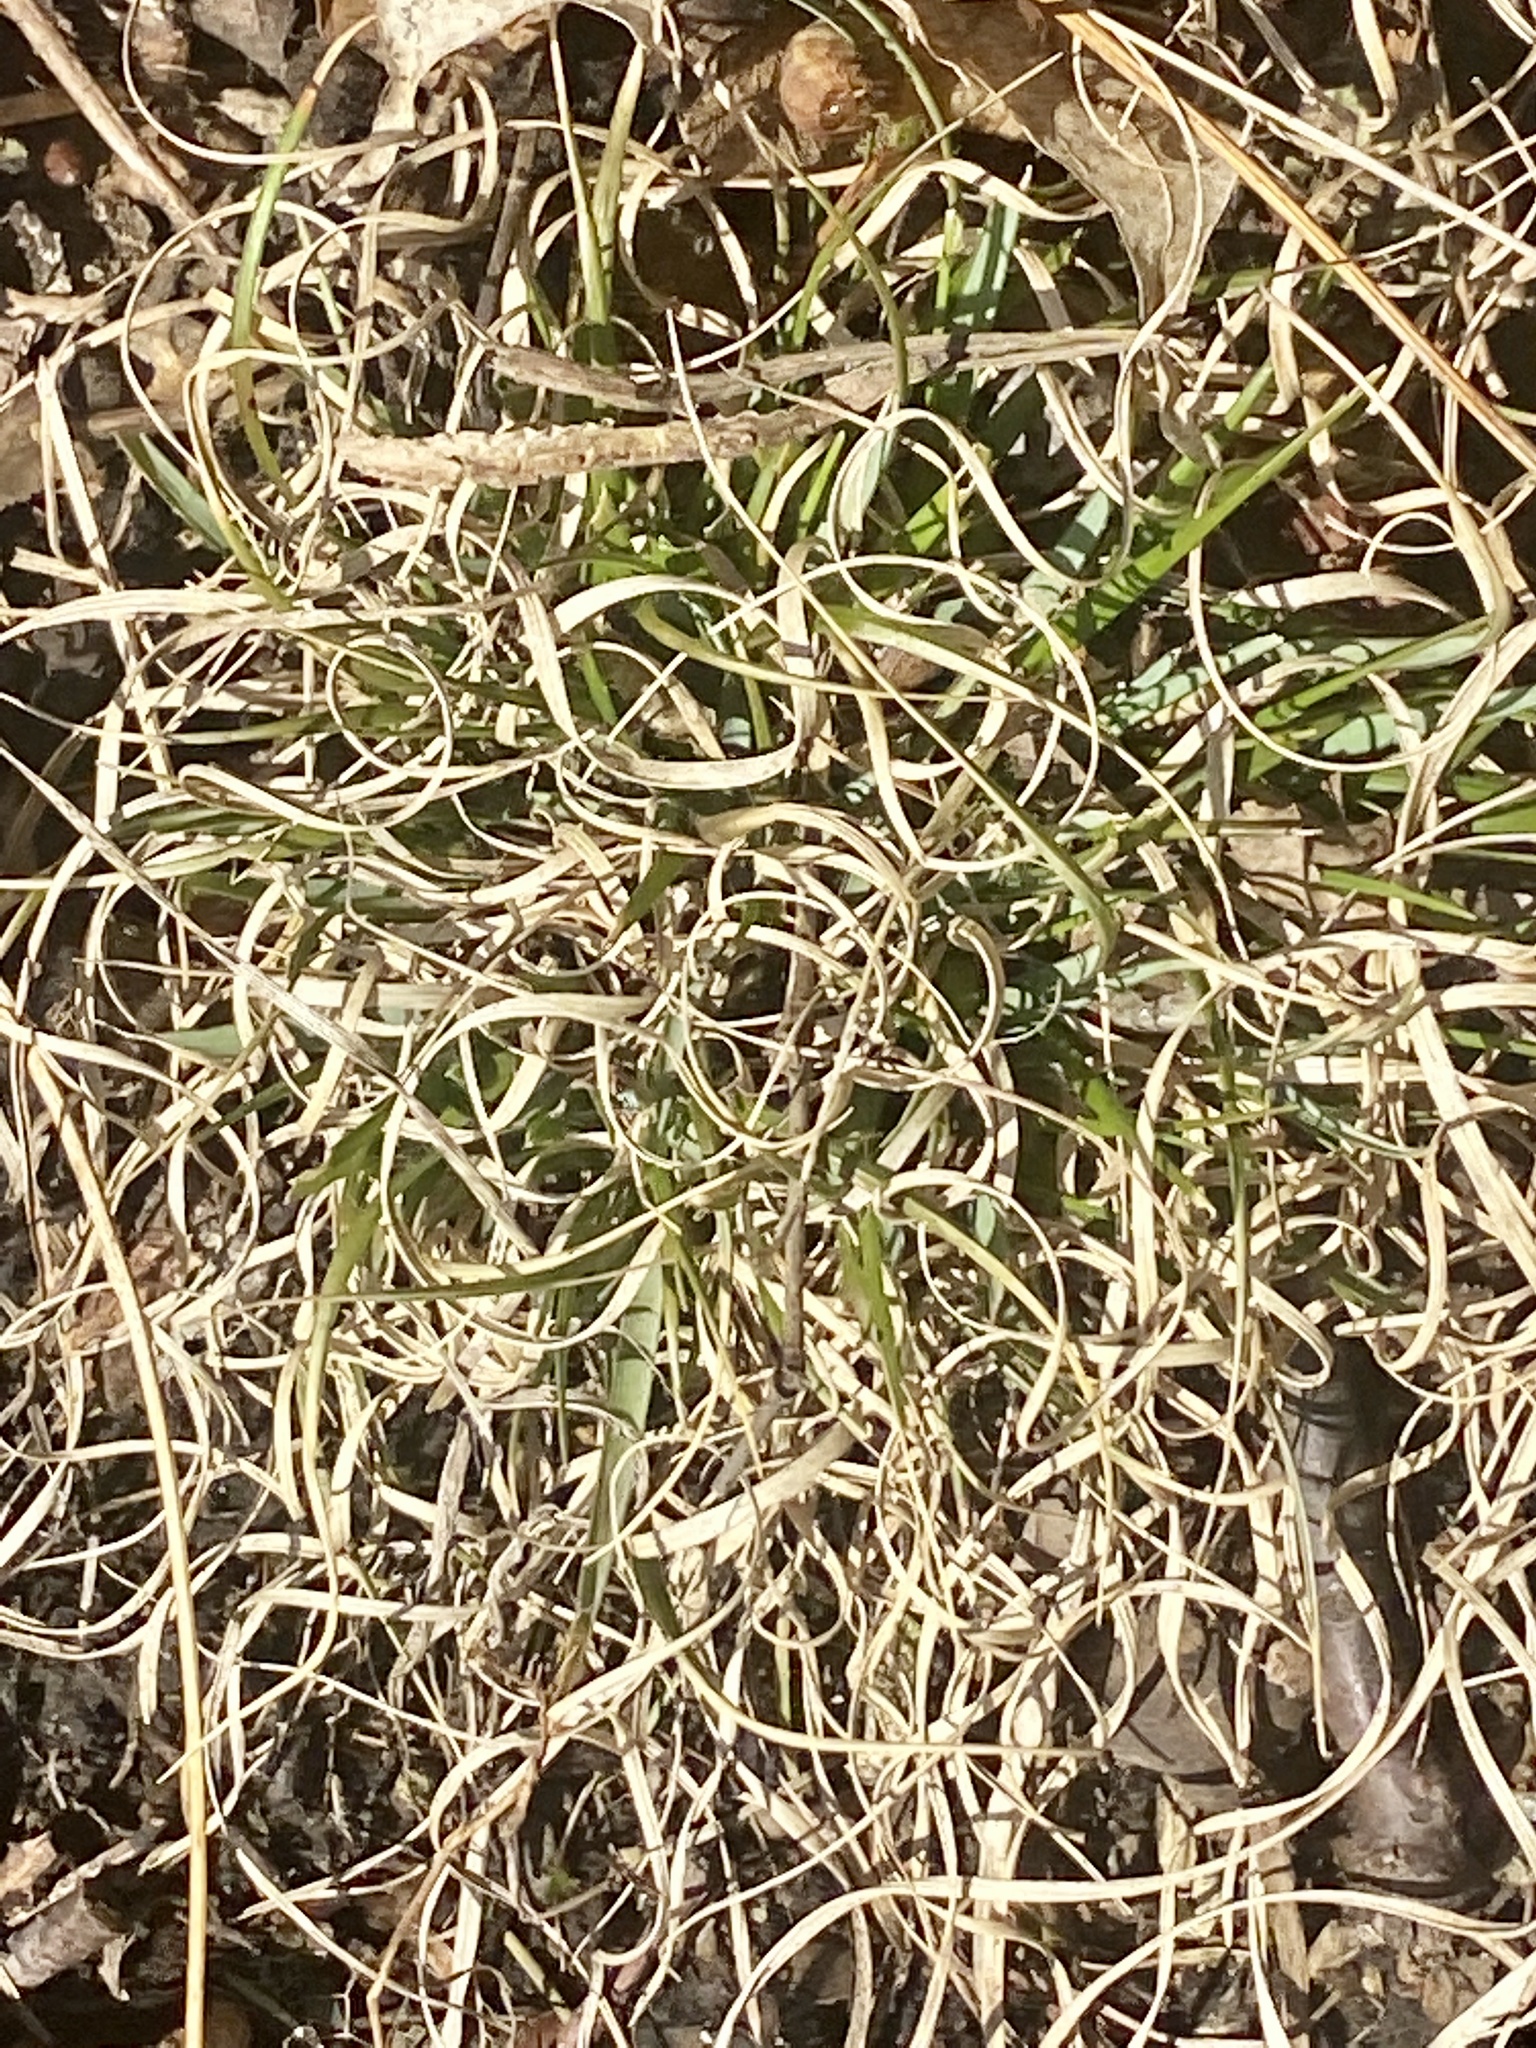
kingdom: Plantae
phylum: Tracheophyta
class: Liliopsida
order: Poales
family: Poaceae
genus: Danthonia
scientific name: Danthonia spicata
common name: Common wild oatgrass
